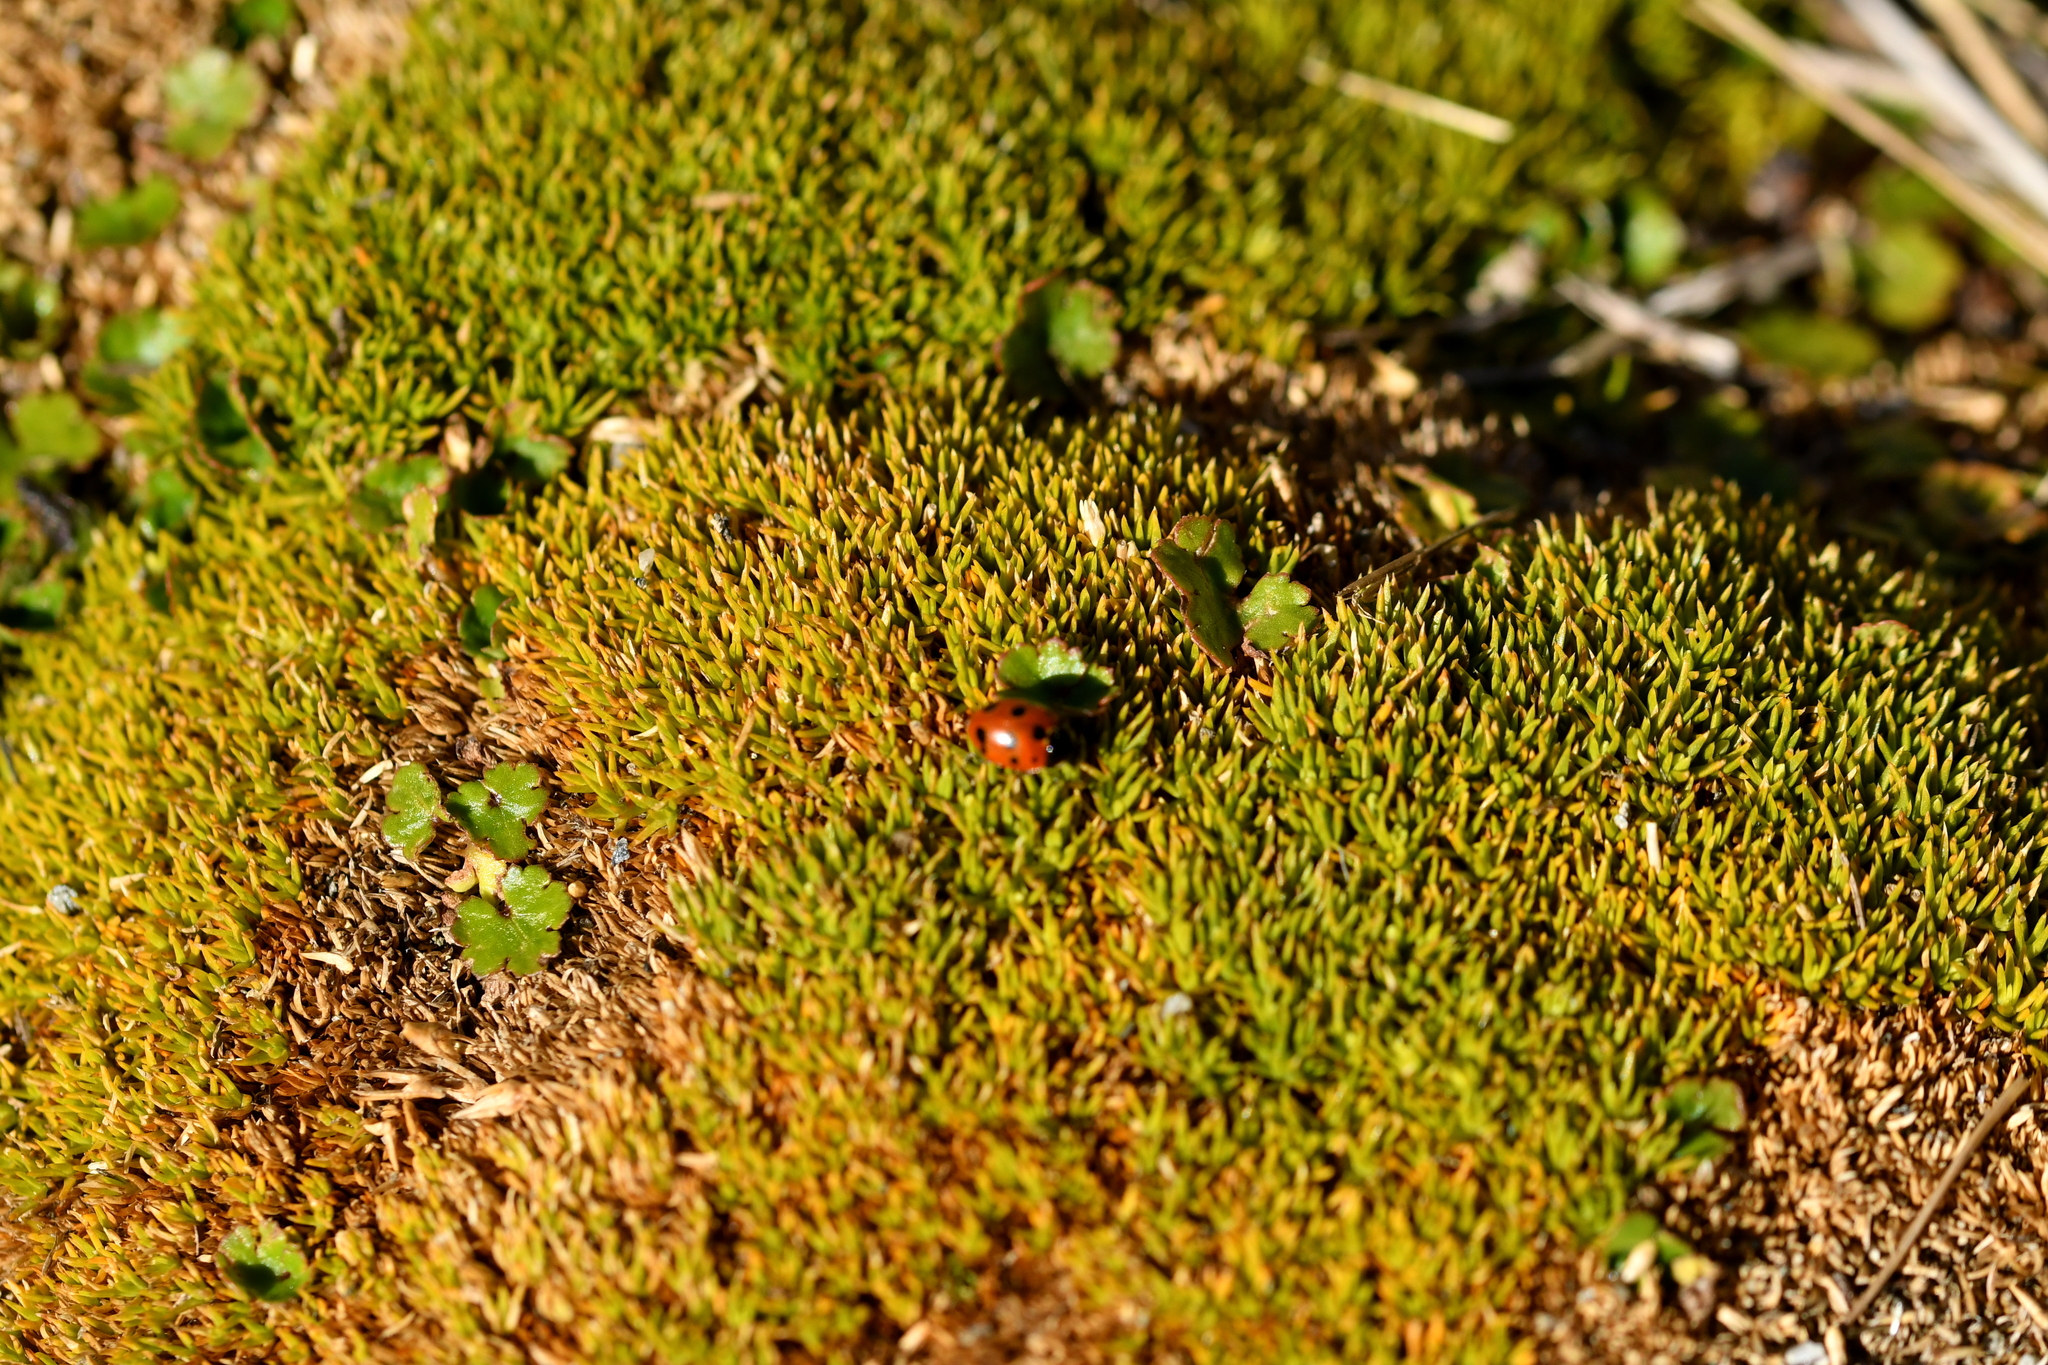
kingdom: Plantae
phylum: Tracheophyta
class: Magnoliopsida
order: Caryophyllales
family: Caryophyllaceae
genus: Scleranthus
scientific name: Scleranthus uniflorus
